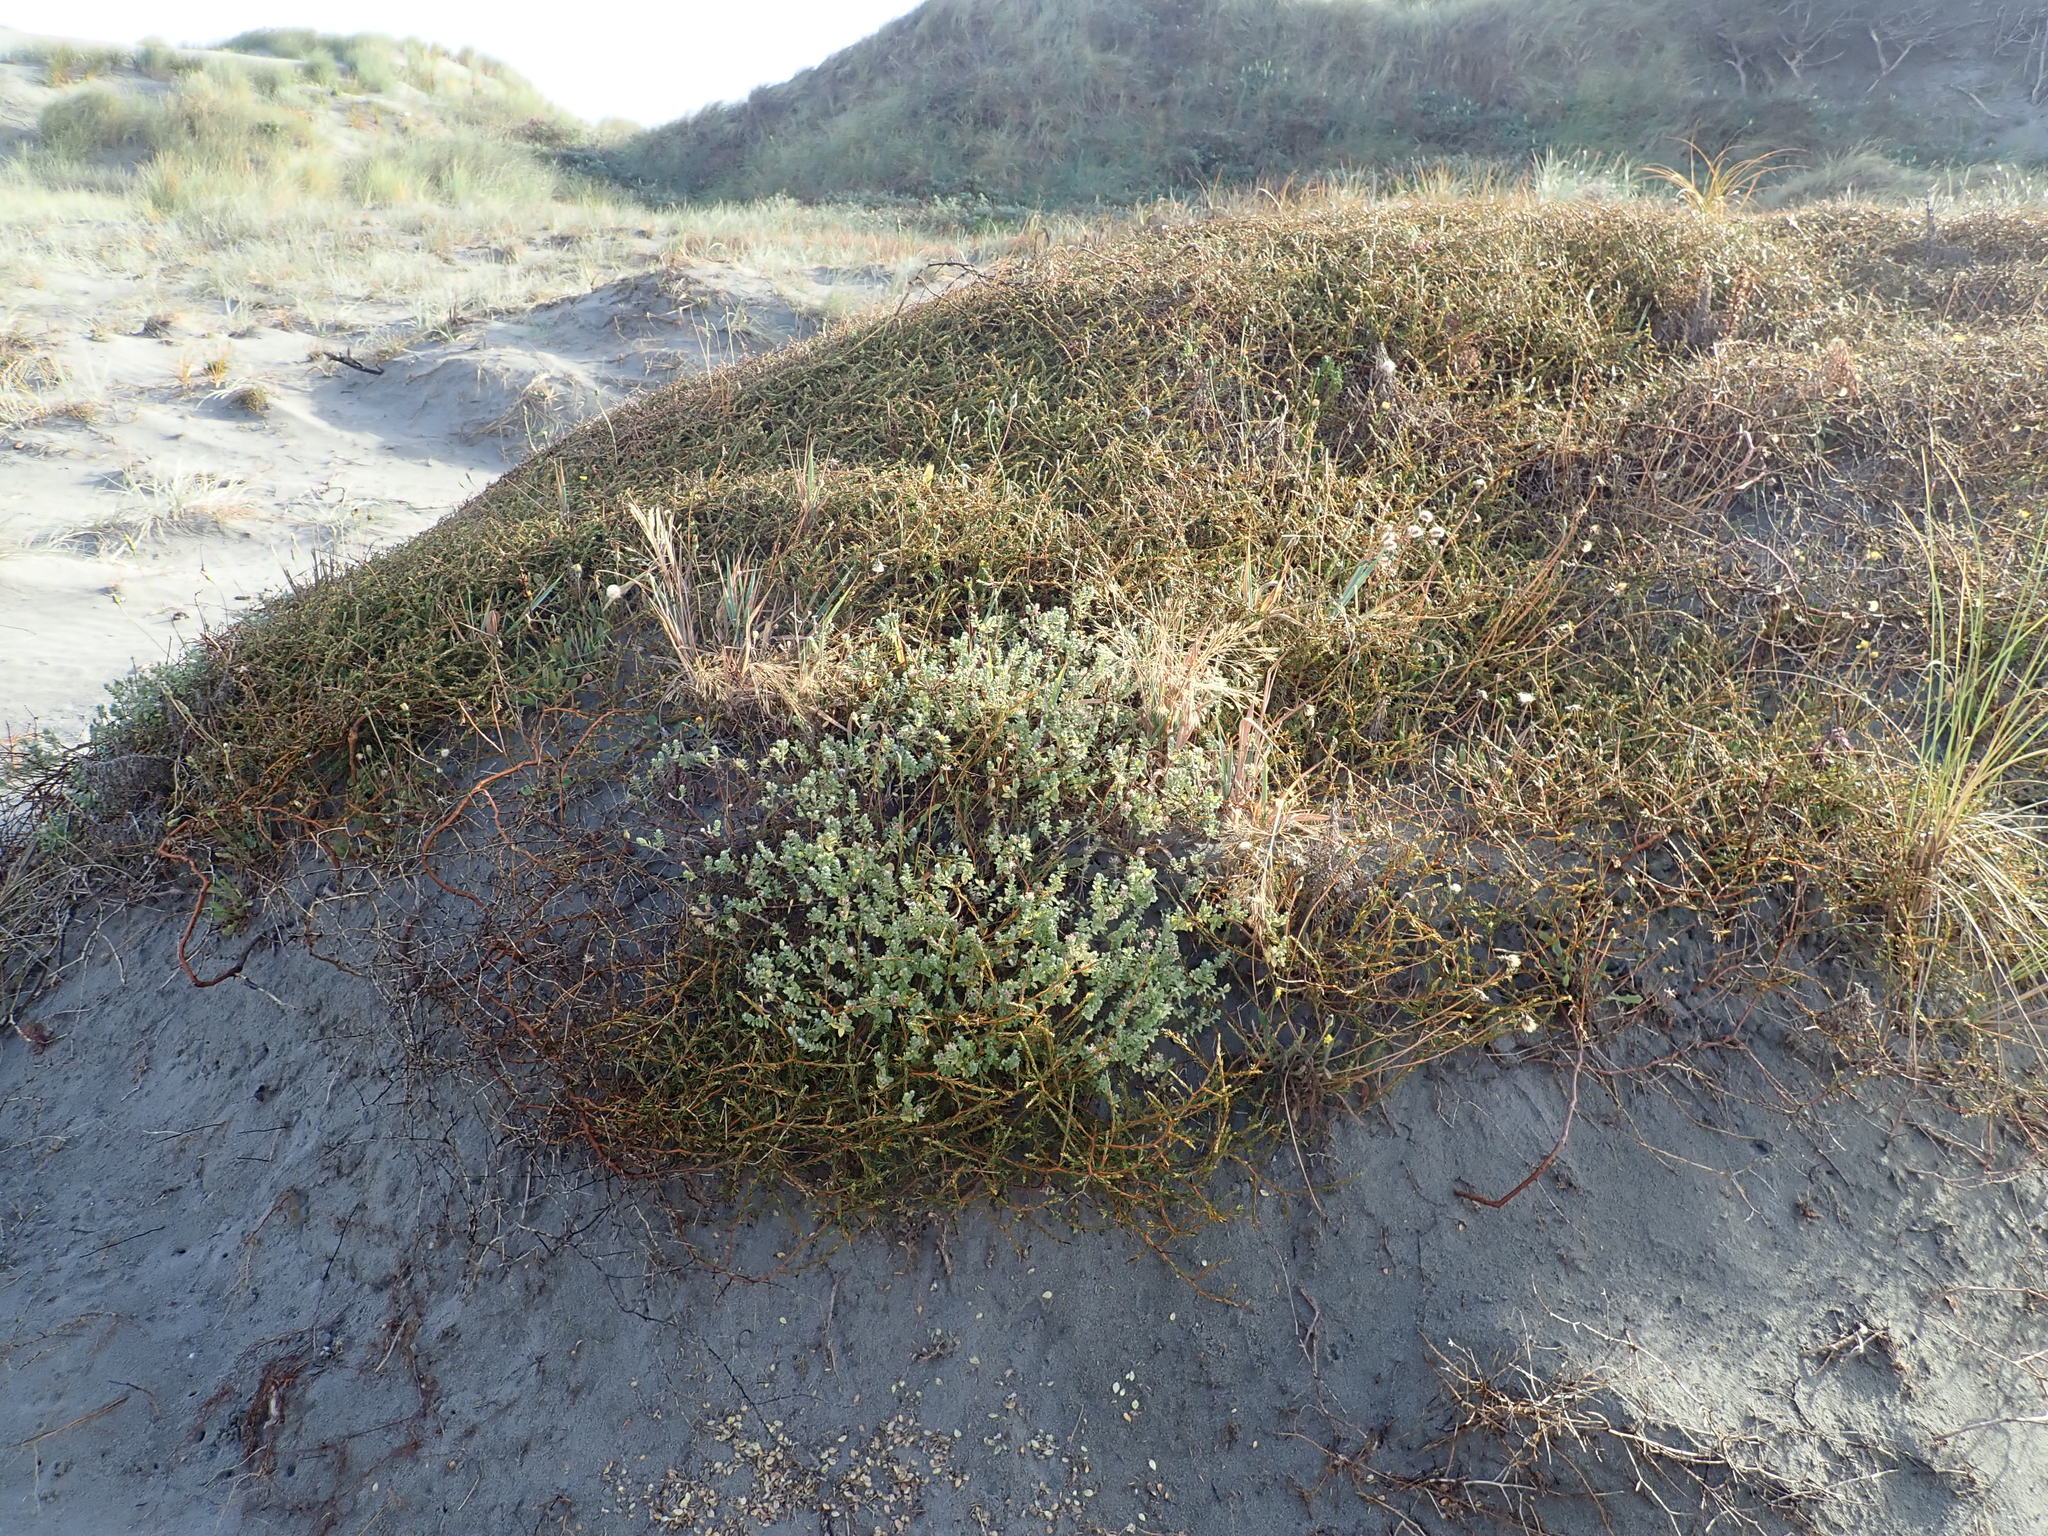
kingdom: Plantae
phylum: Tracheophyta
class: Magnoliopsida
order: Gentianales
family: Rubiaceae
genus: Coprosma
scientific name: Coprosma acerosa
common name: Sand coprosma
